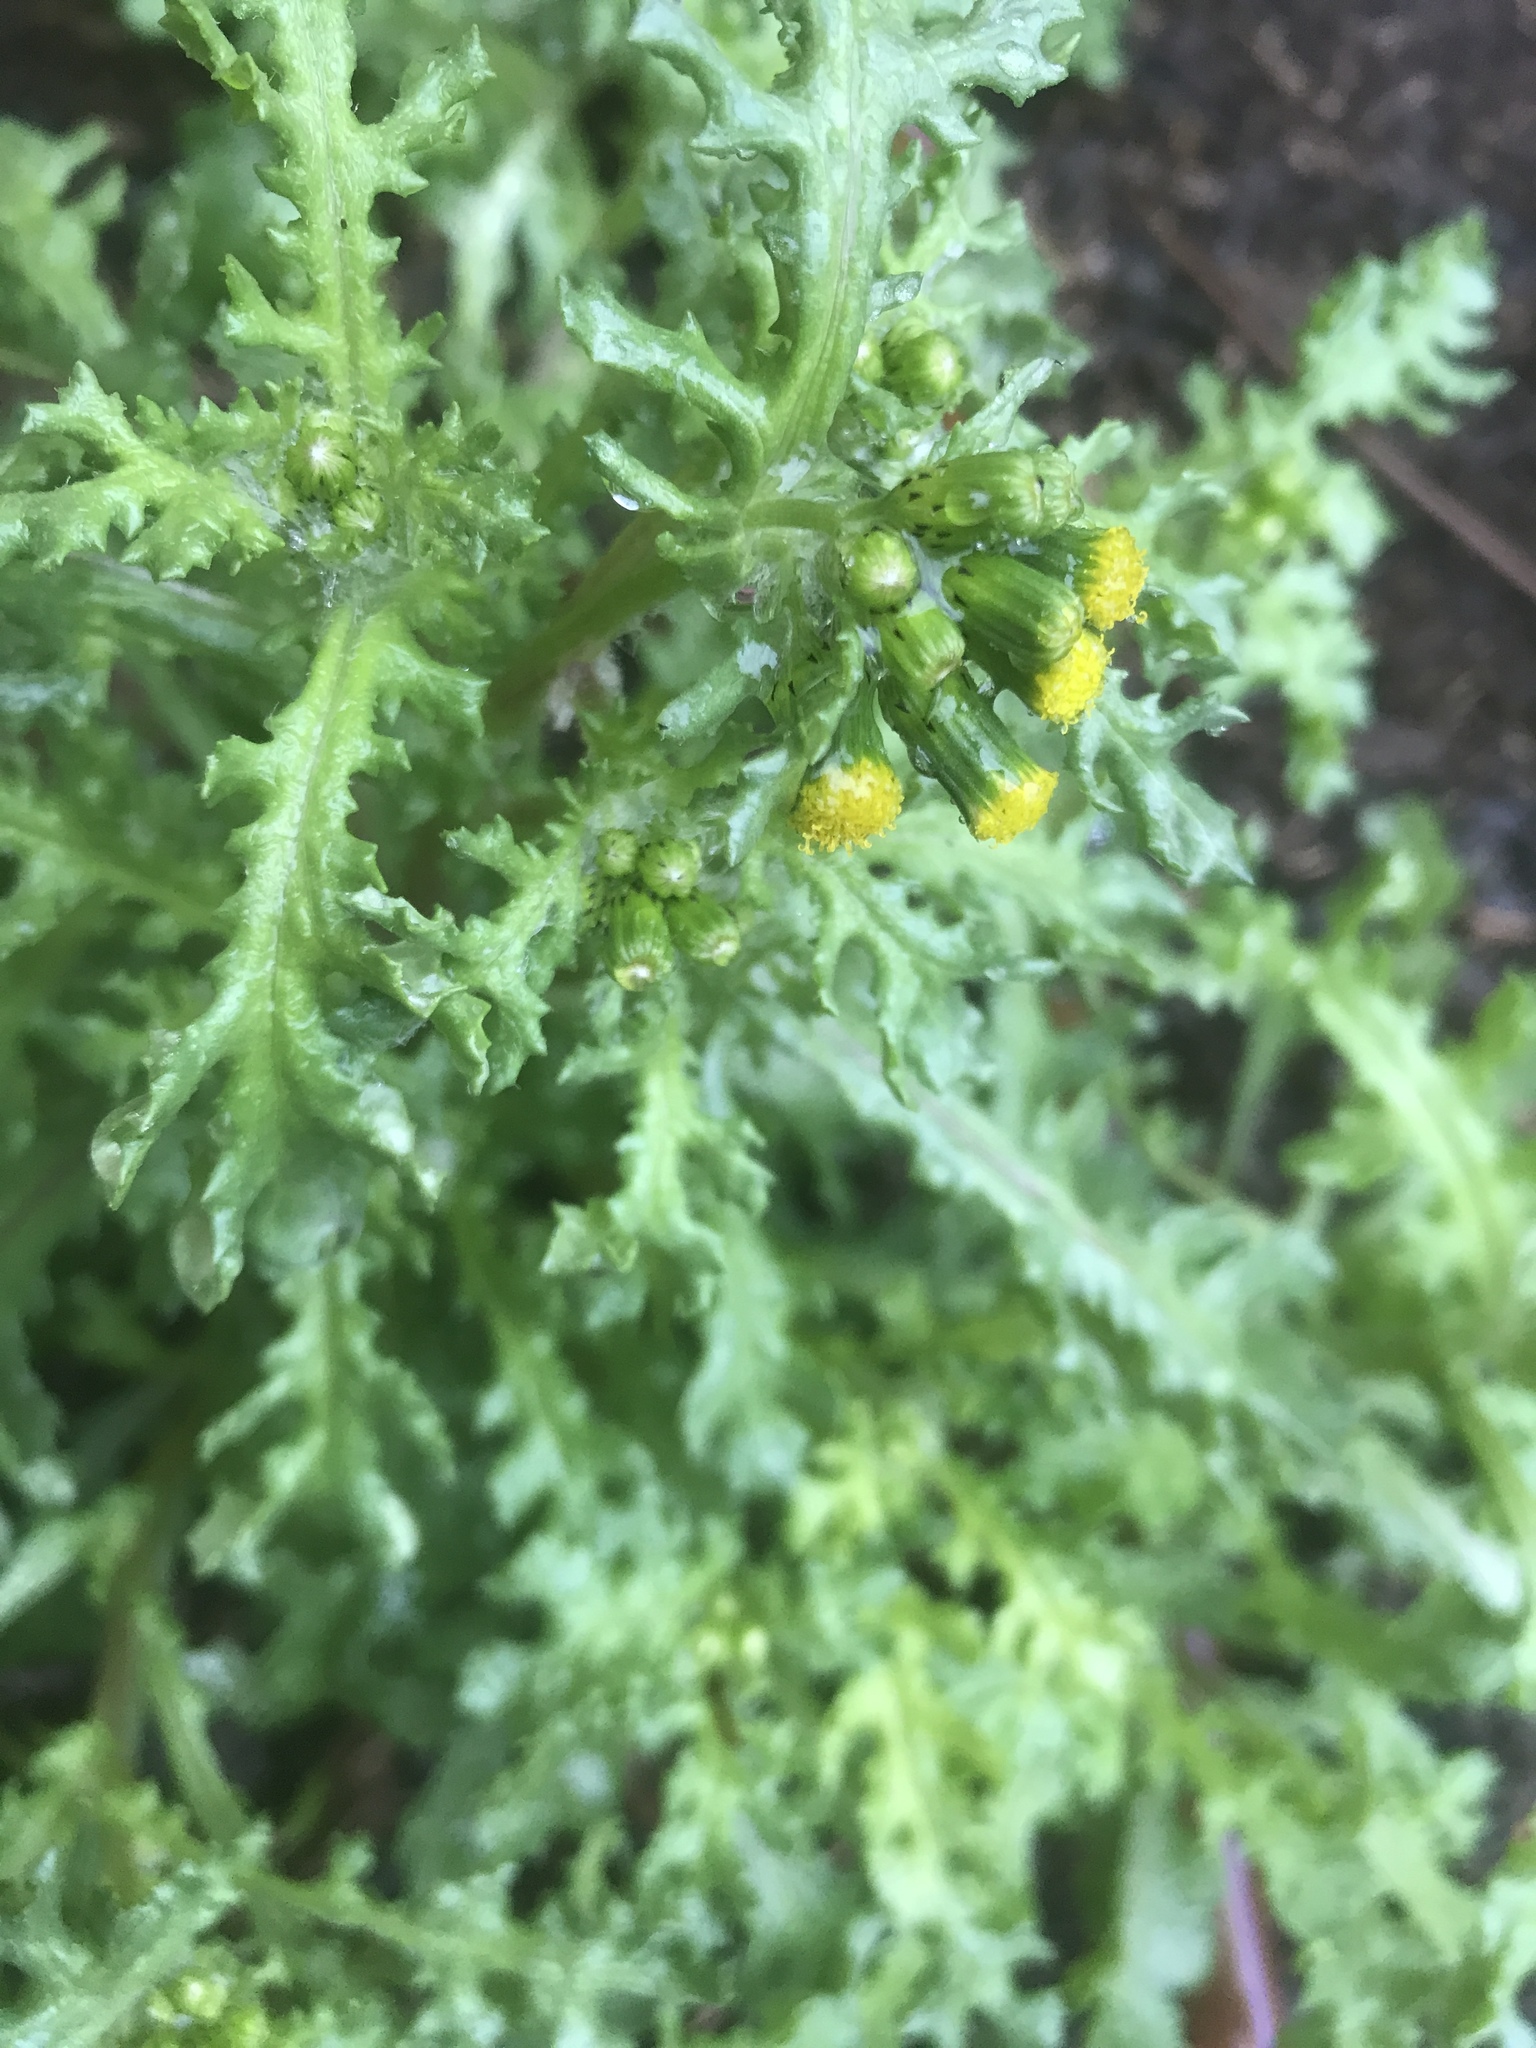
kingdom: Plantae
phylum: Tracheophyta
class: Magnoliopsida
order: Asterales
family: Asteraceae
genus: Senecio
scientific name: Senecio vulgaris
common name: Old-man-in-the-spring
